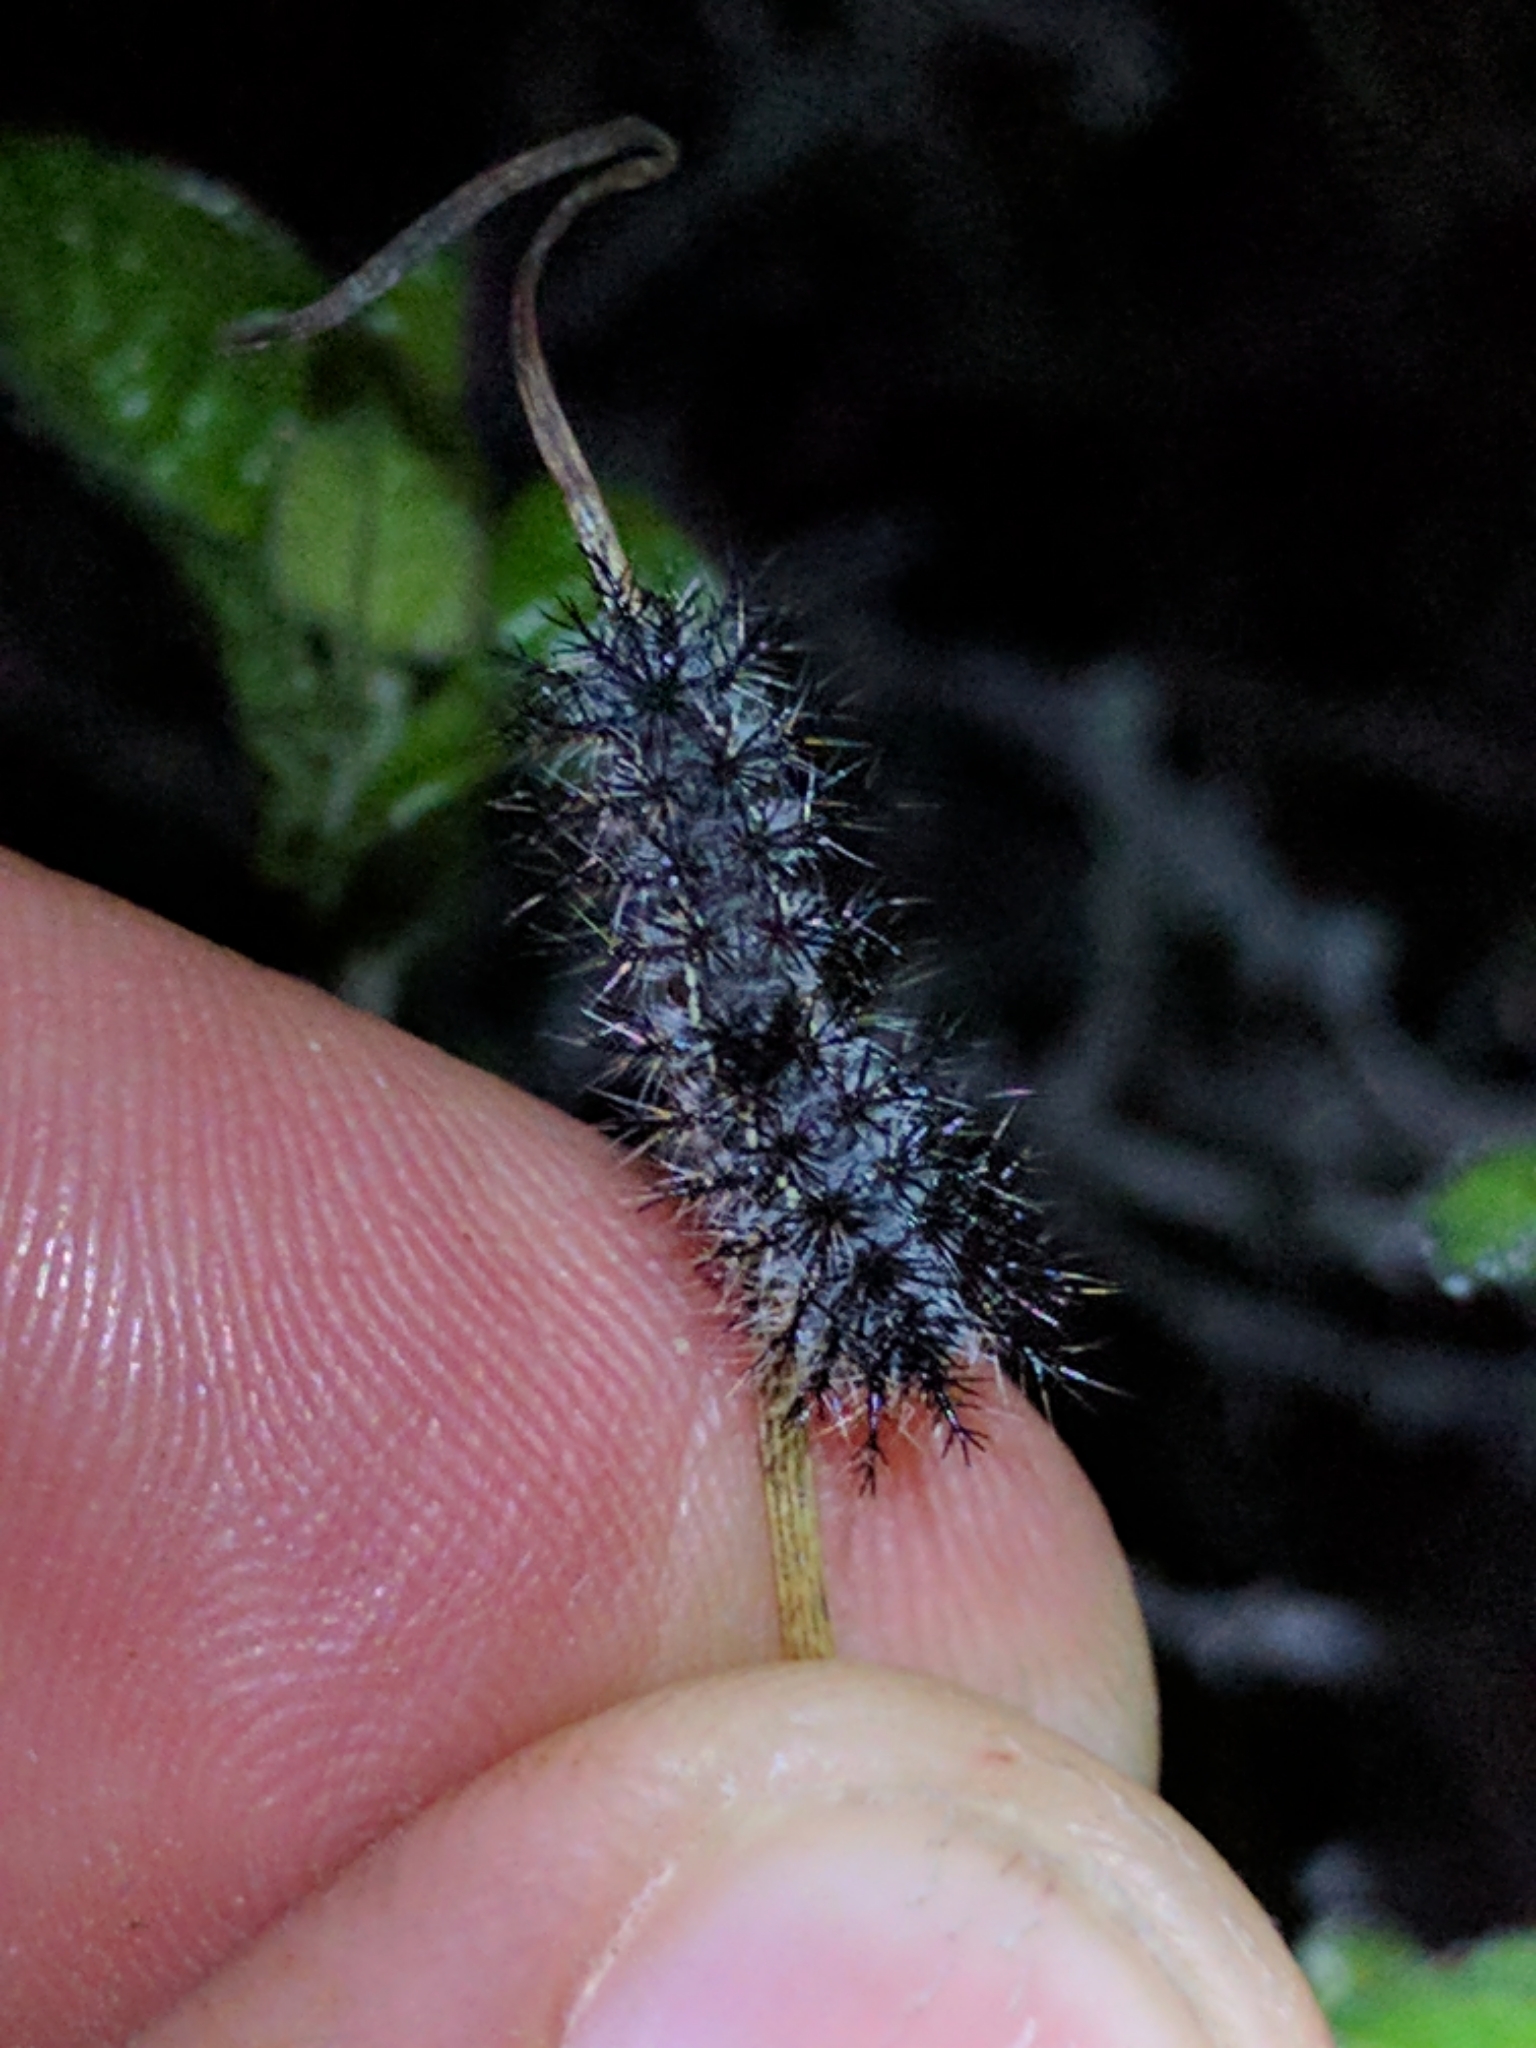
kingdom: Animalia
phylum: Arthropoda
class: Insecta
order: Lepidoptera
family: Saturniidae
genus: Hemileuca
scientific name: Hemileuca electra
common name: Electra buckmoth
